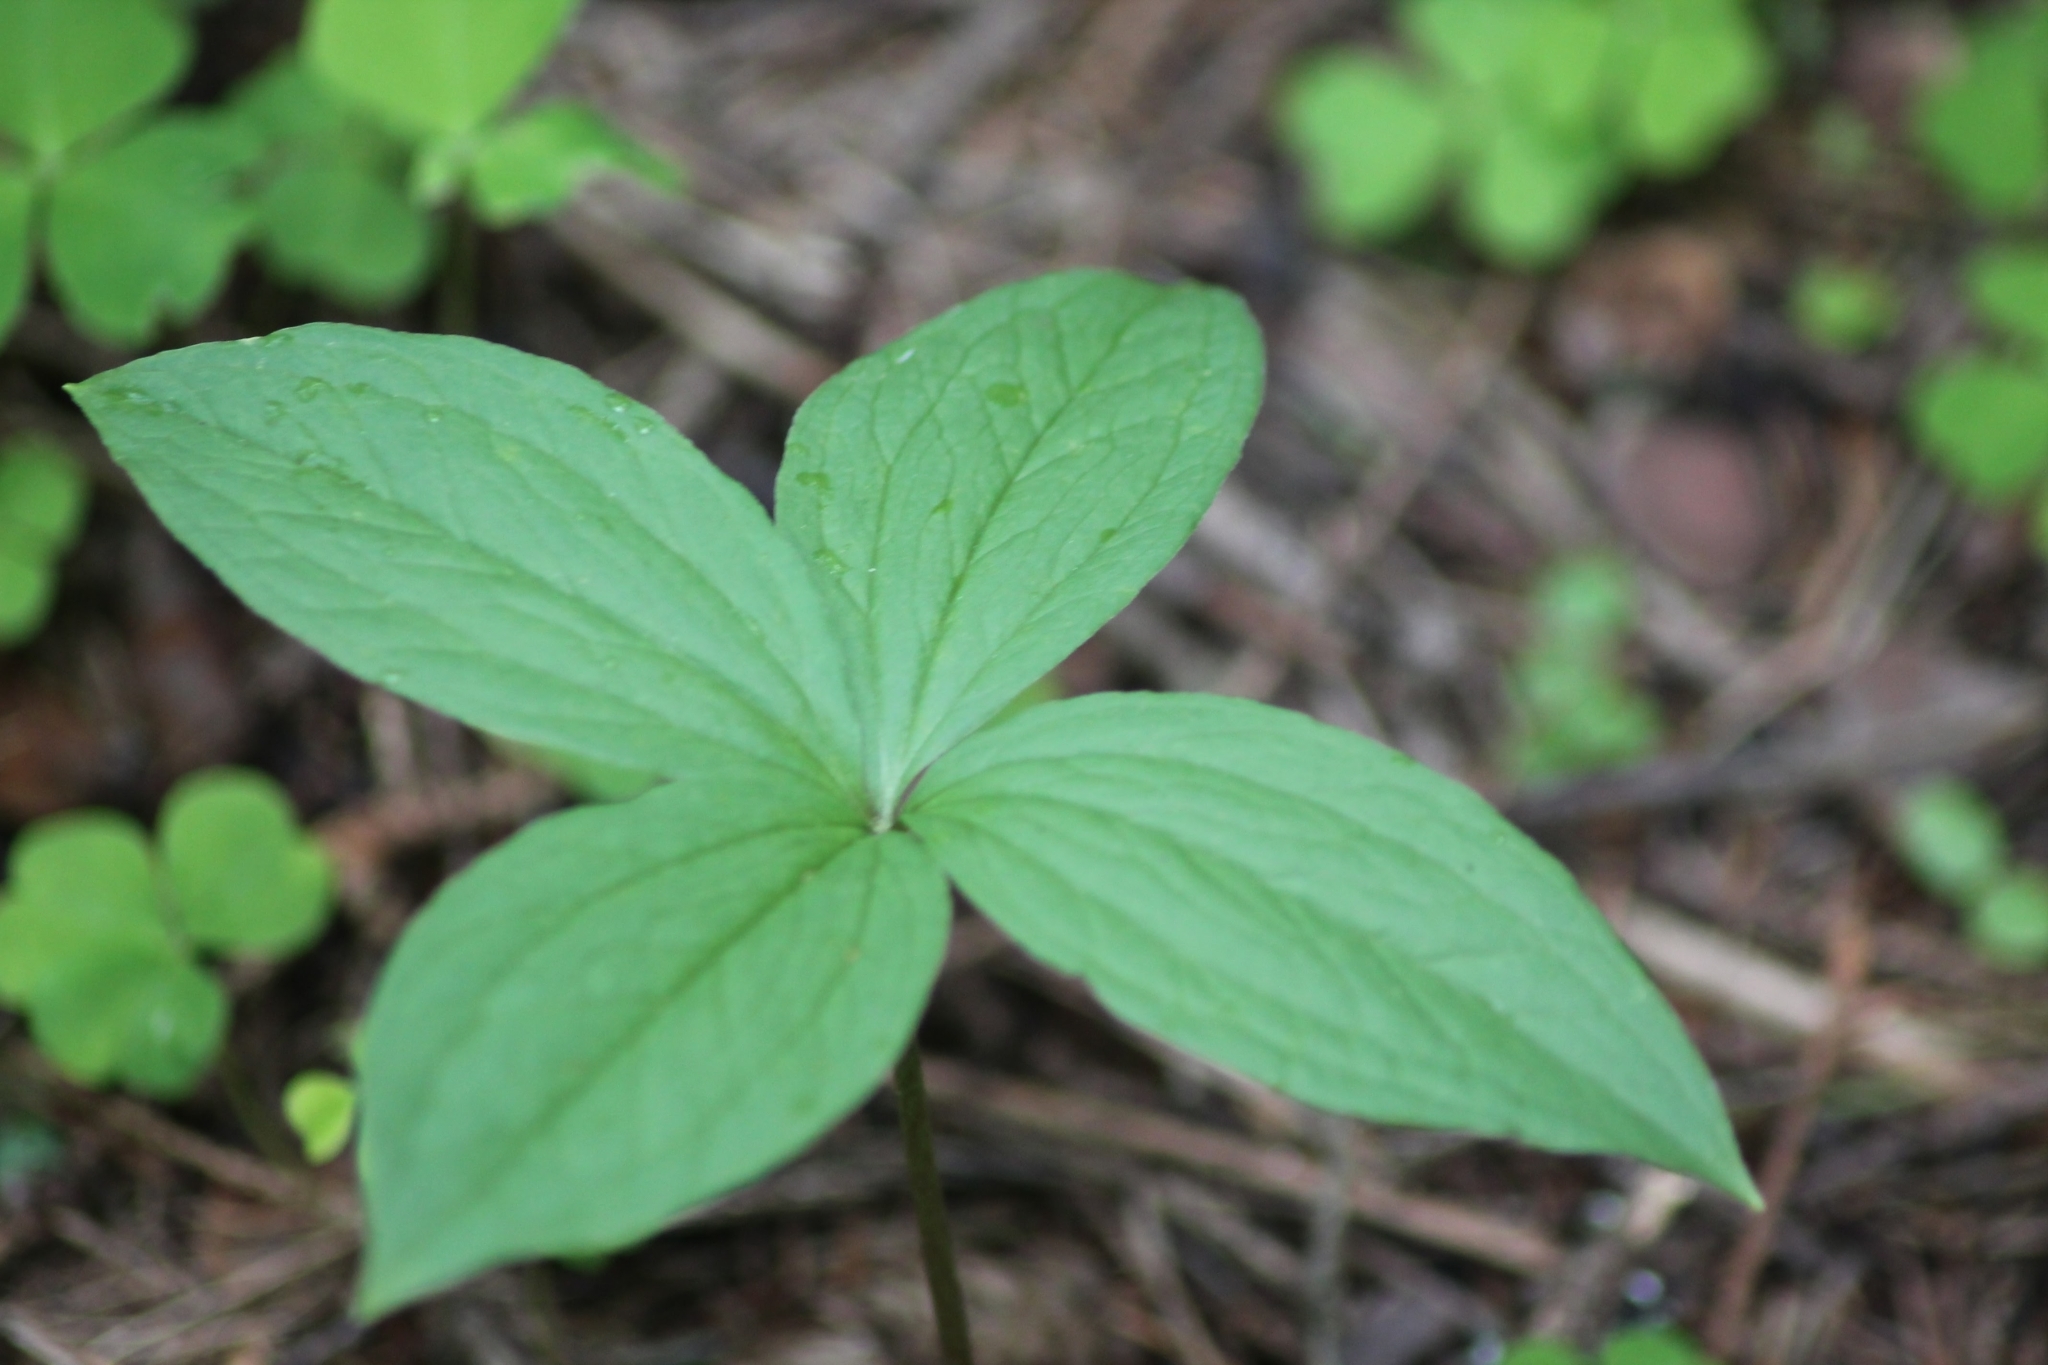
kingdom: Plantae
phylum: Tracheophyta
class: Liliopsida
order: Liliales
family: Melanthiaceae
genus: Paris
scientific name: Paris quadrifolia
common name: Herb-paris
